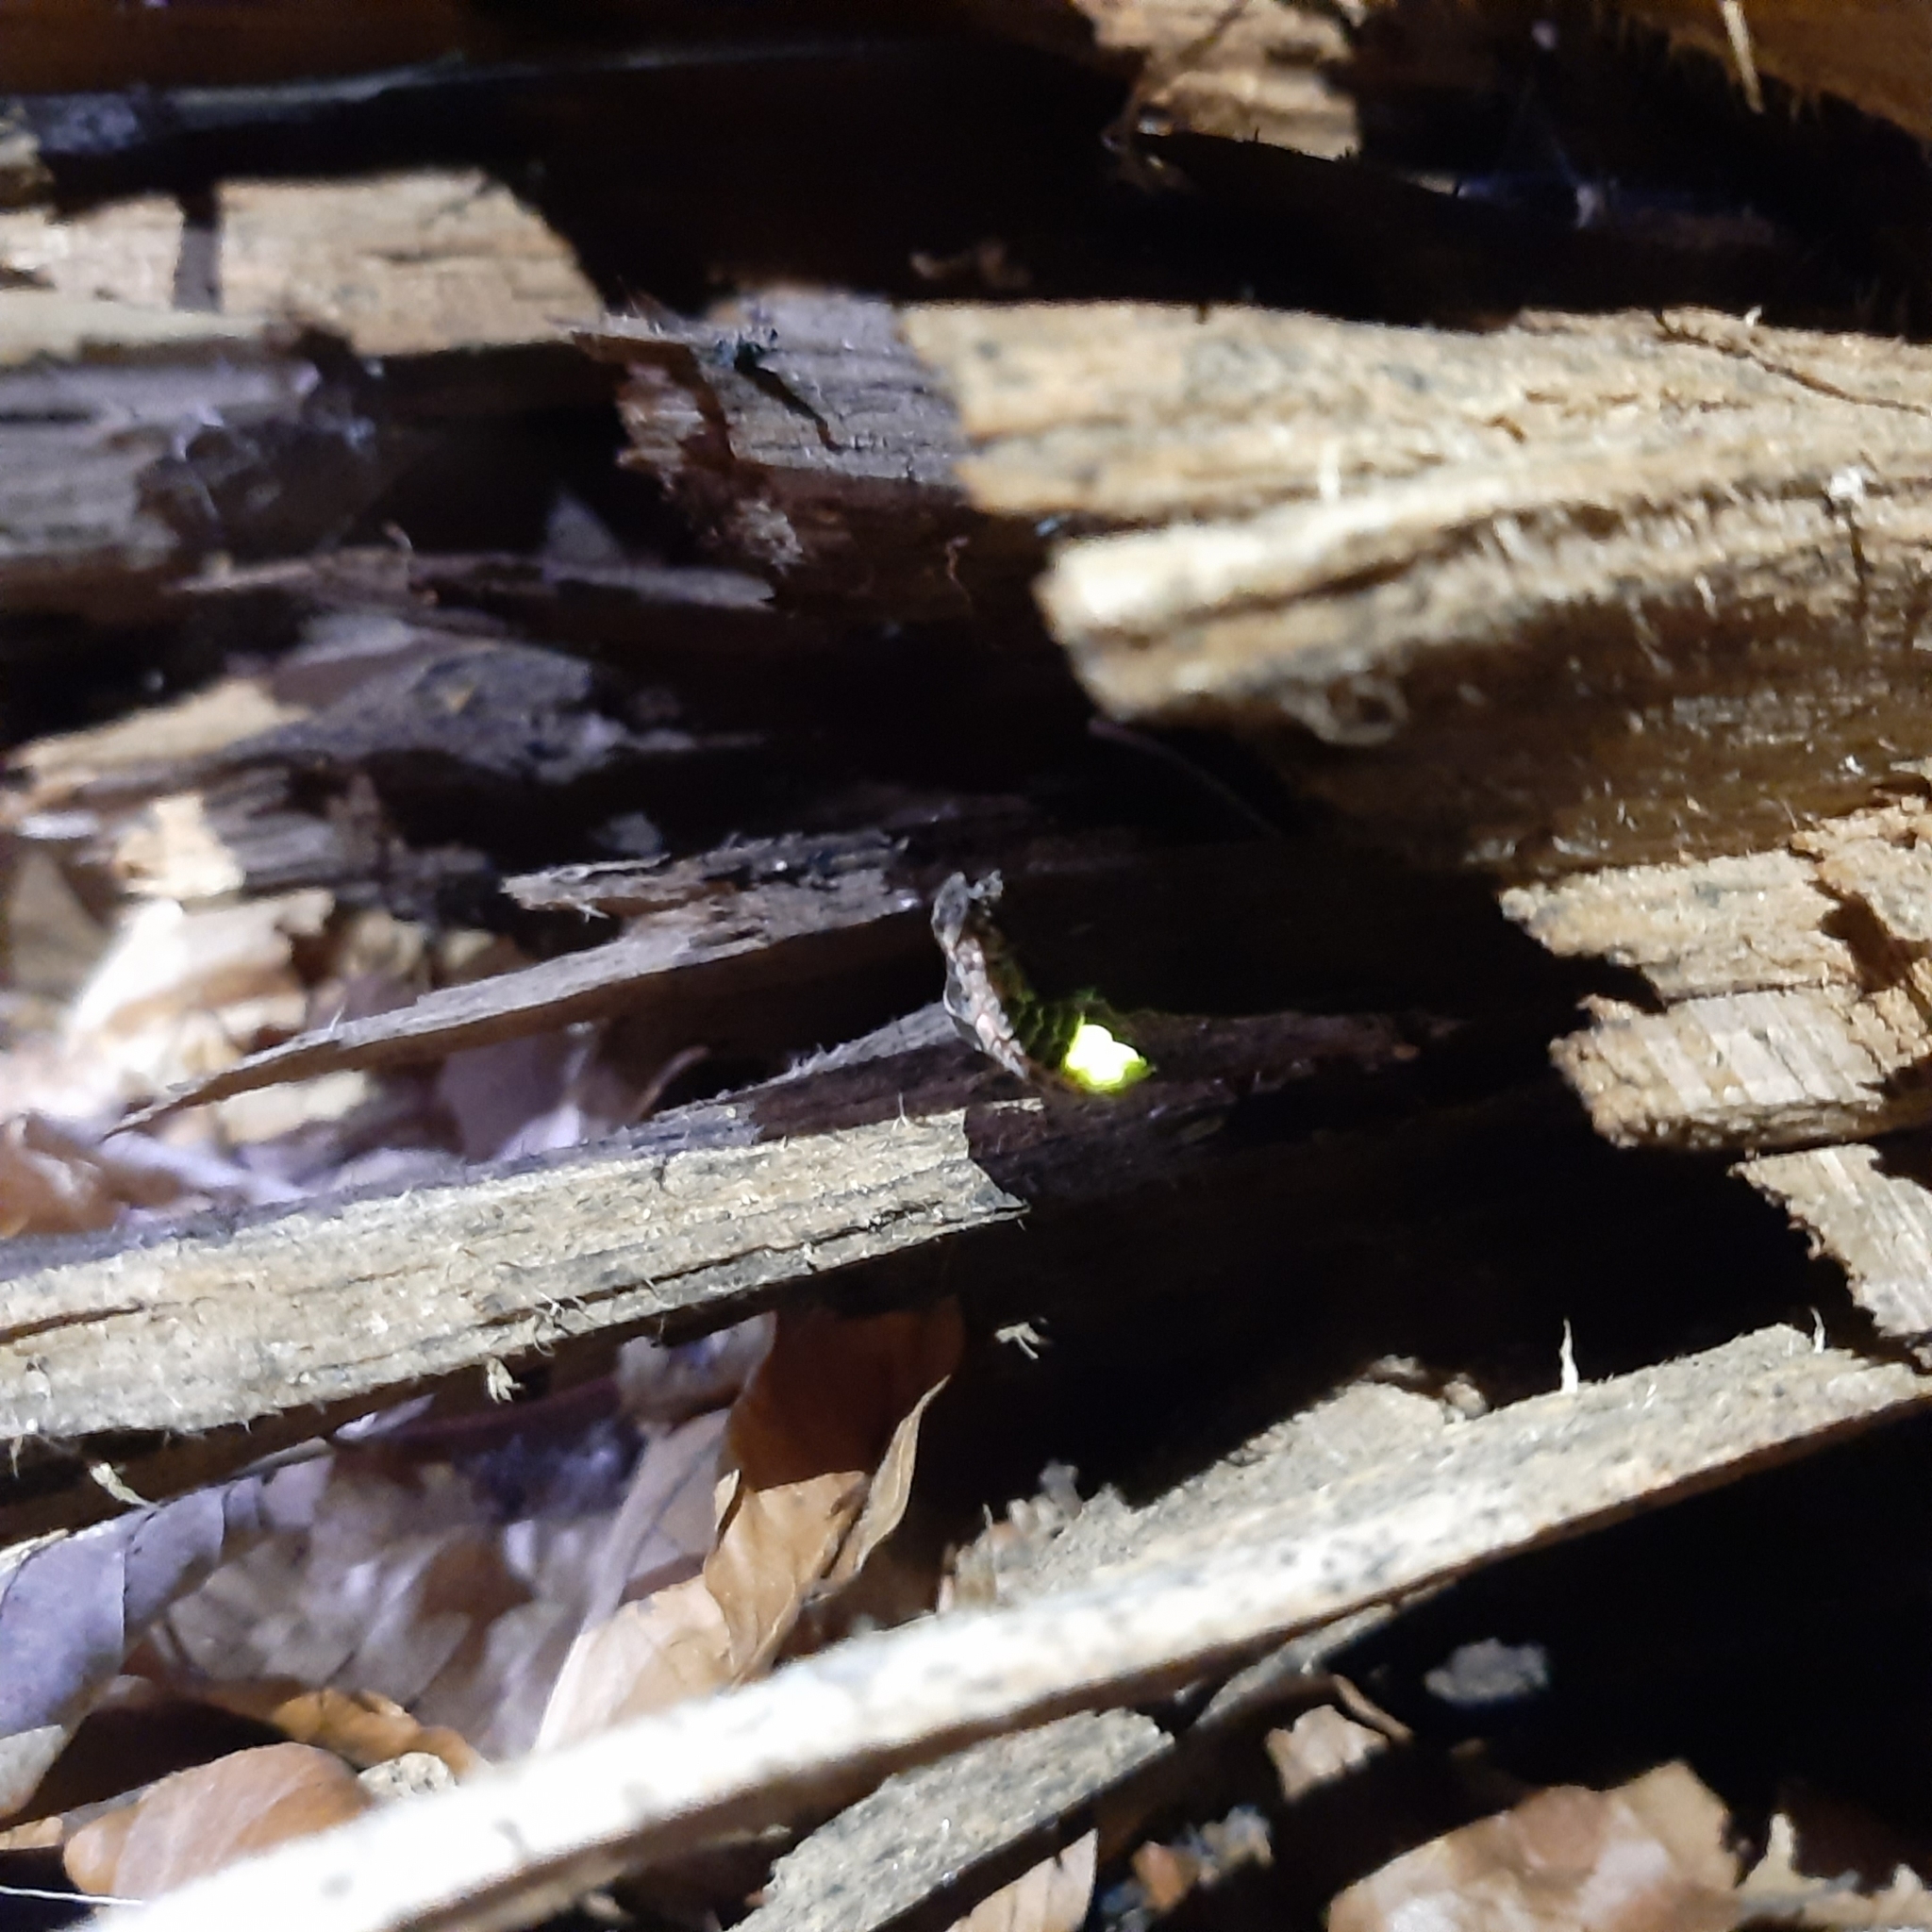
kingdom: Animalia
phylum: Arthropoda
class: Insecta
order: Coleoptera
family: Lampyridae
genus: Lampyris
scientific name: Lampyris noctiluca
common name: Glow-worm
